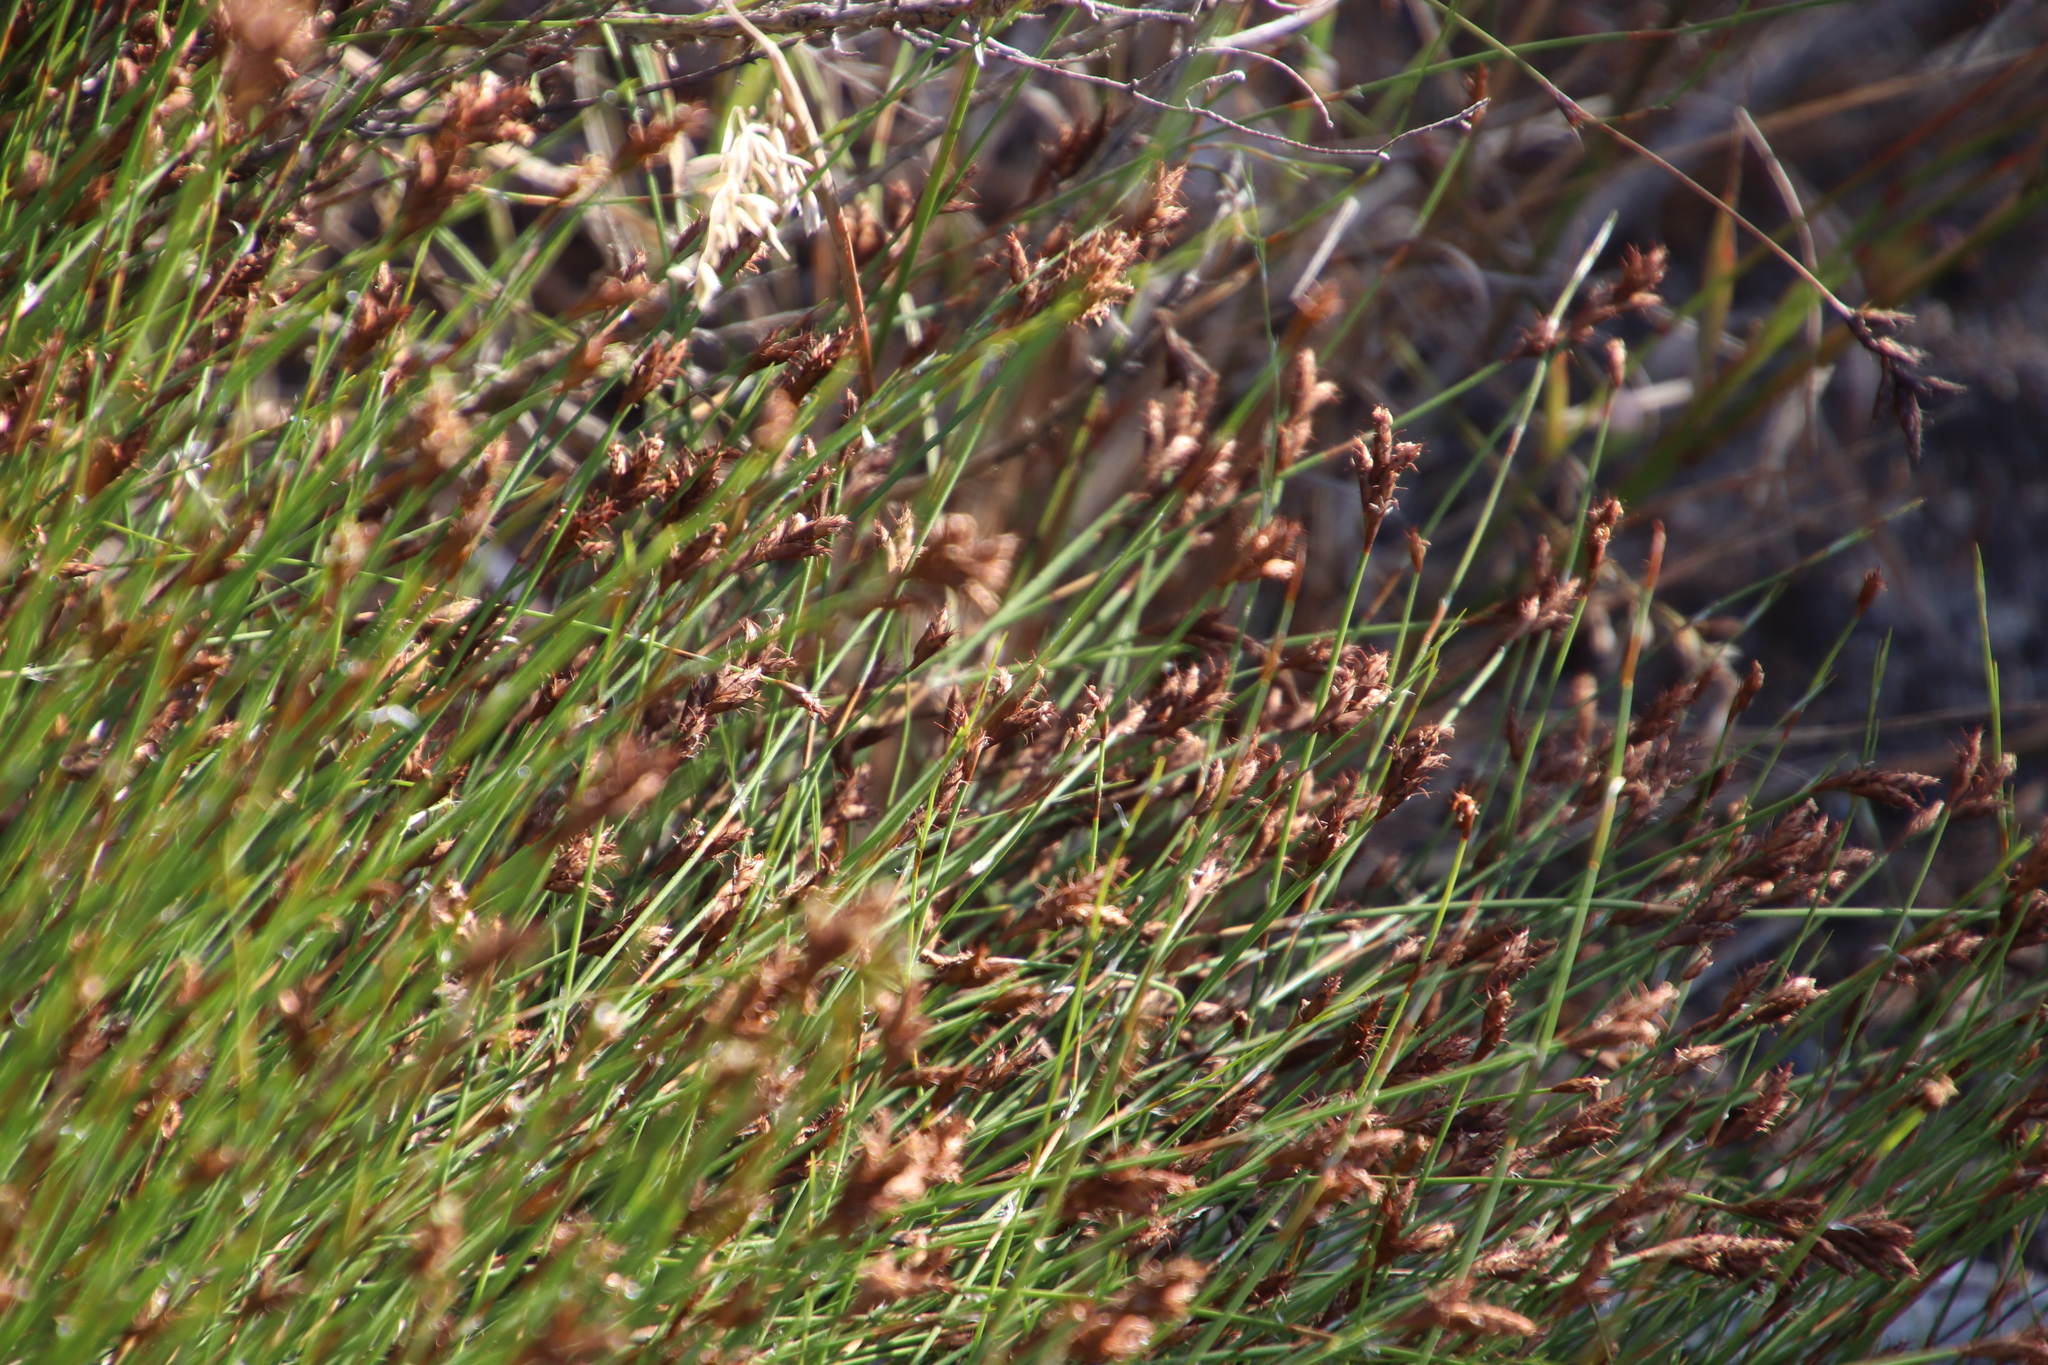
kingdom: Plantae
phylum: Tracheophyta
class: Liliopsida
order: Poales
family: Restionaceae
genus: Restio
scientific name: Restio capensis
